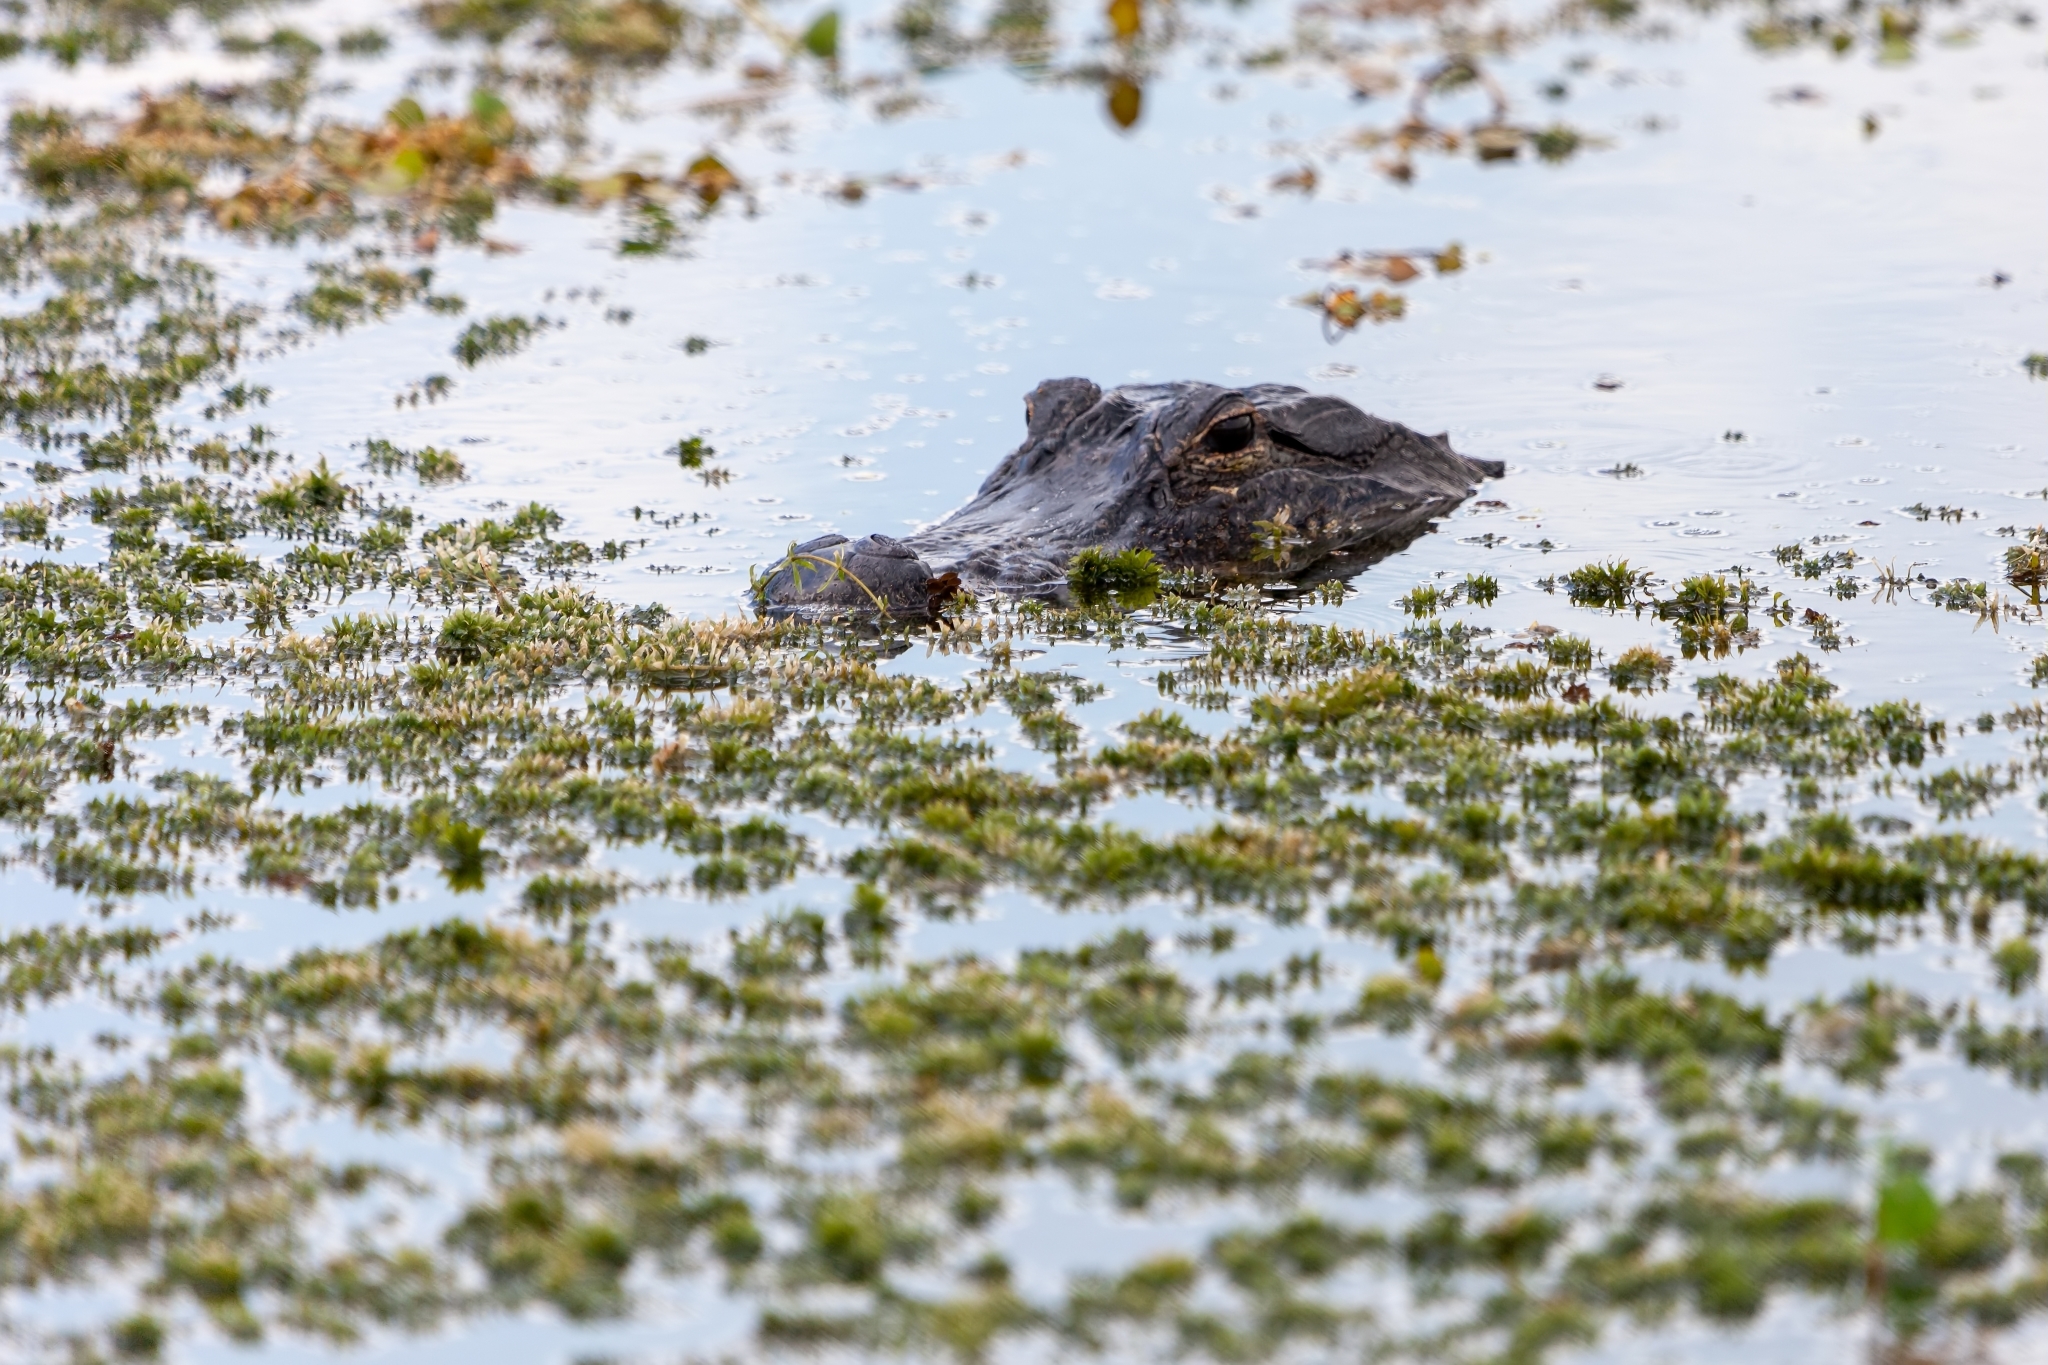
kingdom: Animalia
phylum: Chordata
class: Crocodylia
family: Alligatoridae
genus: Alligator
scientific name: Alligator mississippiensis
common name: American alligator
